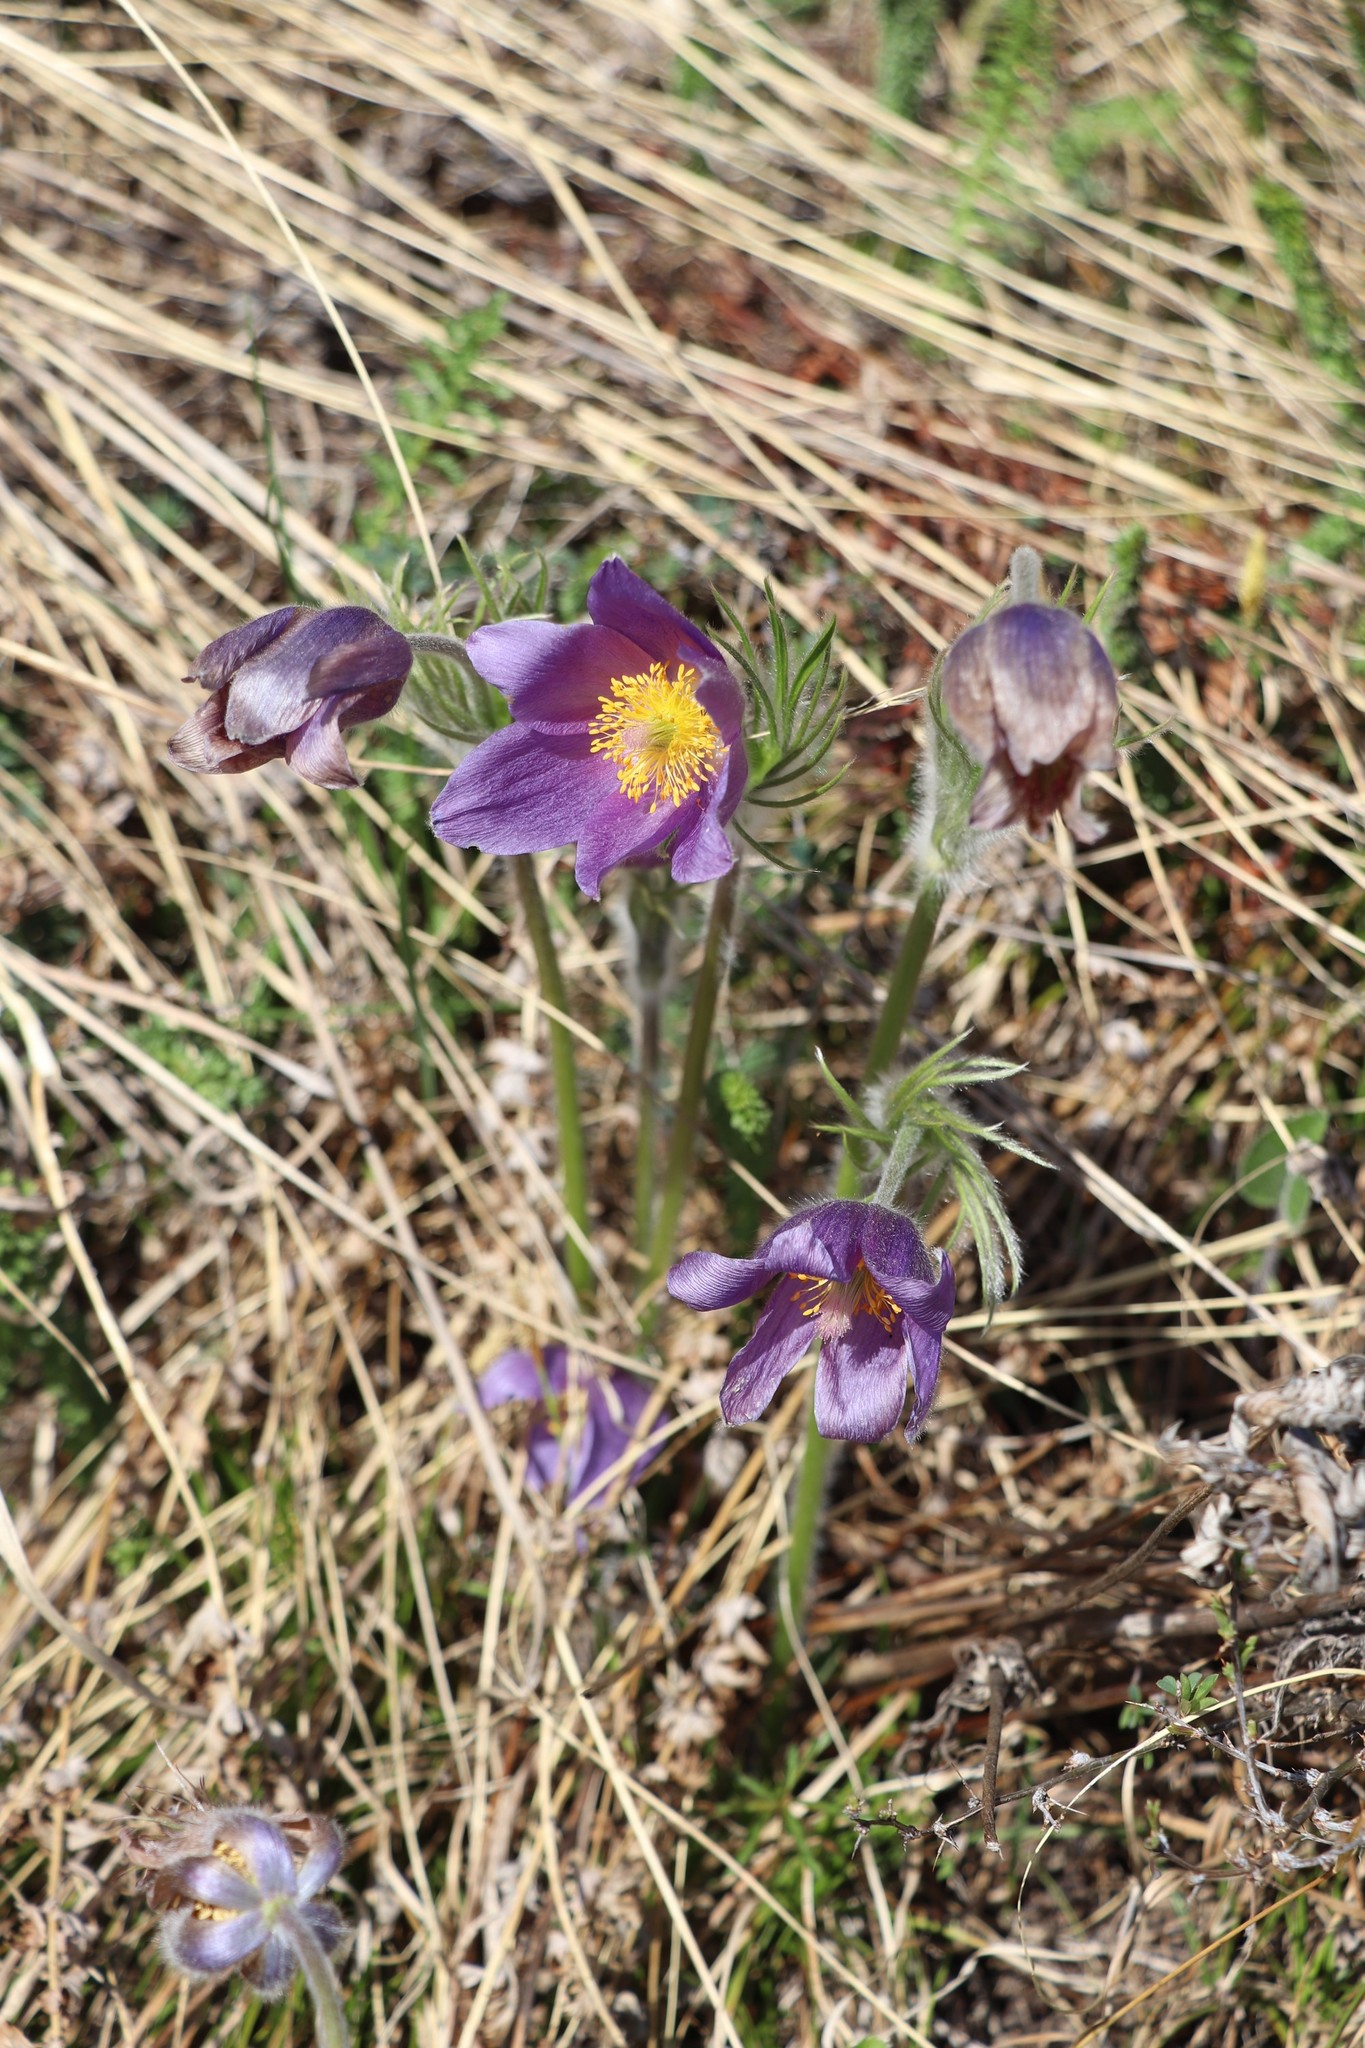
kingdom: Plantae
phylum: Tracheophyta
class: Magnoliopsida
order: Ranunculales
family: Ranunculaceae
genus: Pulsatilla
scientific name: Pulsatilla patens
